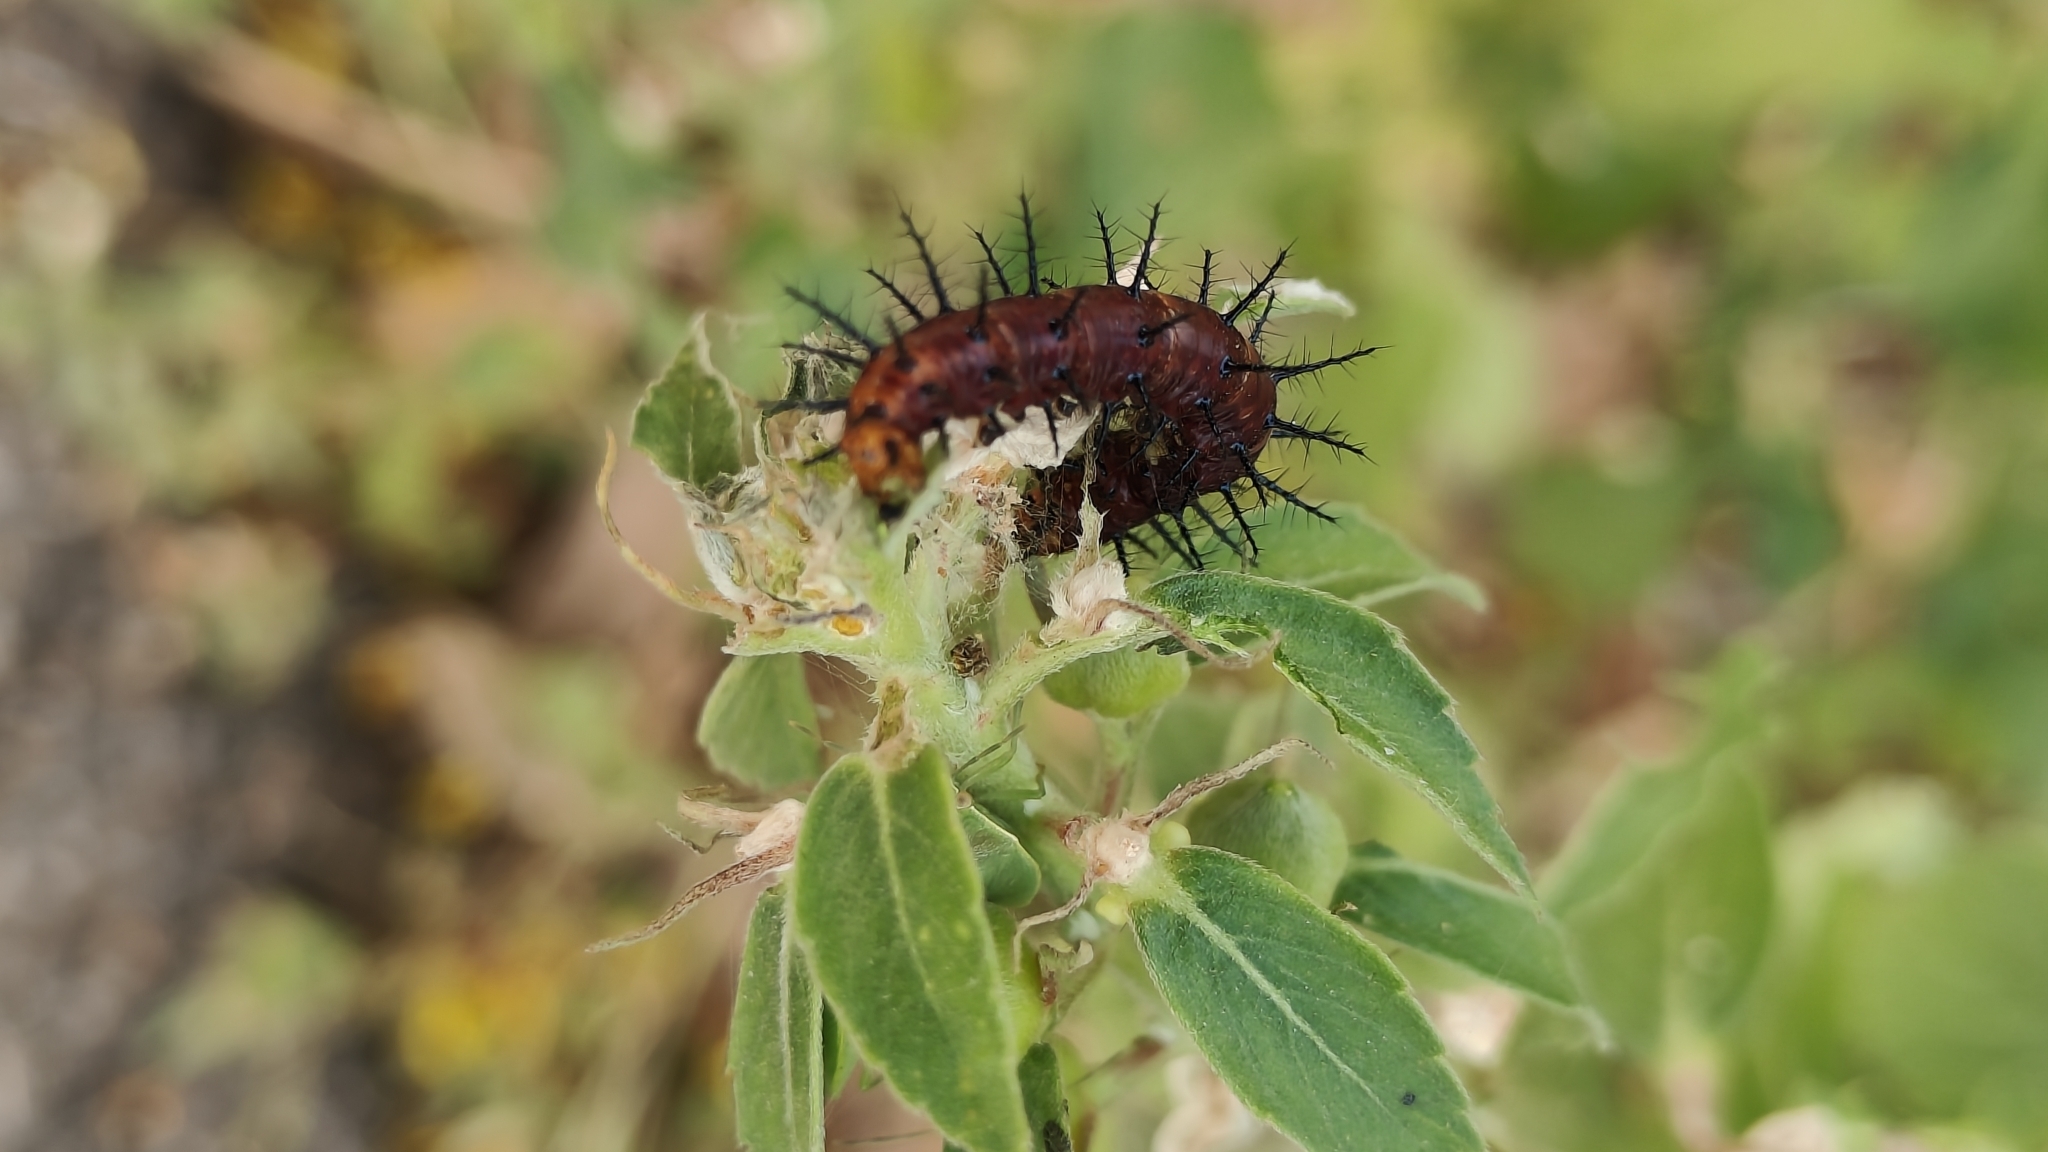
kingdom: Animalia
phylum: Arthropoda
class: Insecta
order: Lepidoptera
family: Nymphalidae
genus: Acraea
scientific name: Acraea terpsicore
